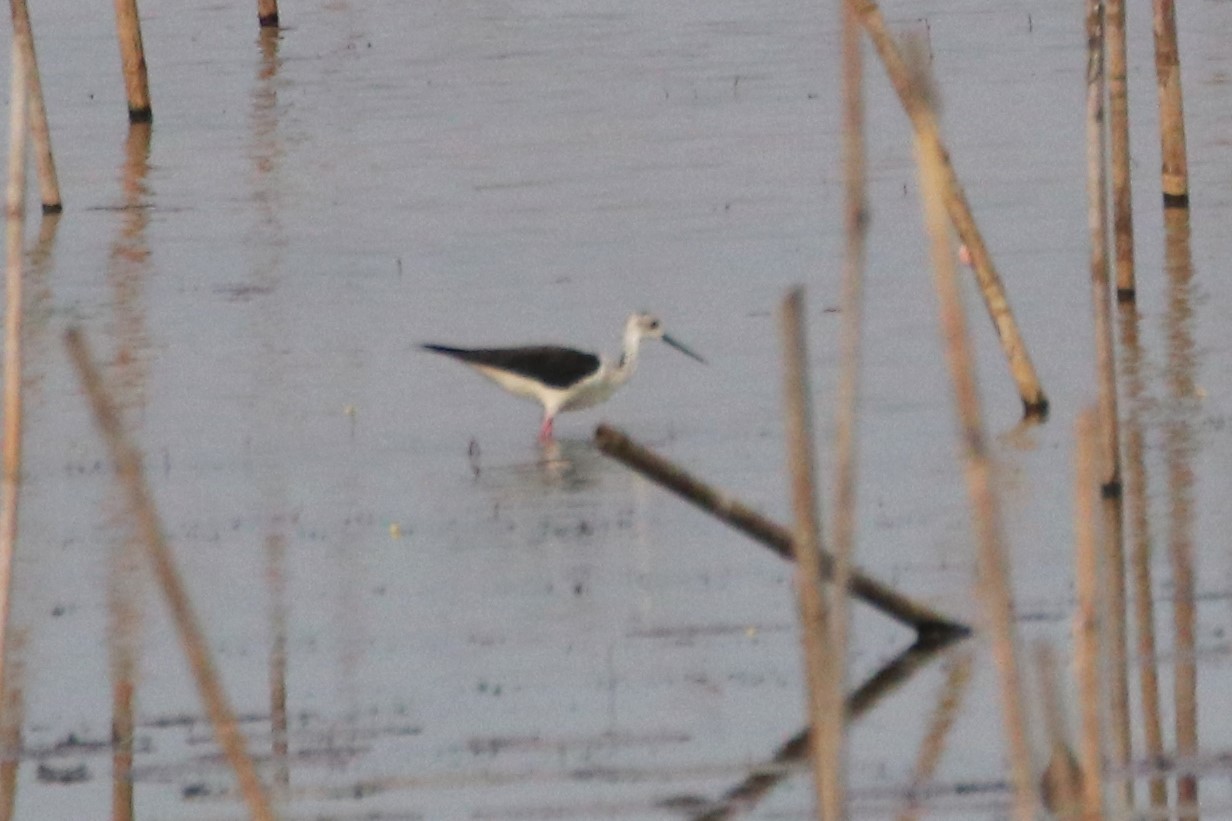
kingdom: Animalia
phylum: Chordata
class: Aves
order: Charadriiformes
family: Recurvirostridae
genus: Himantopus
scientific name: Himantopus himantopus
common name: Black-winged stilt
